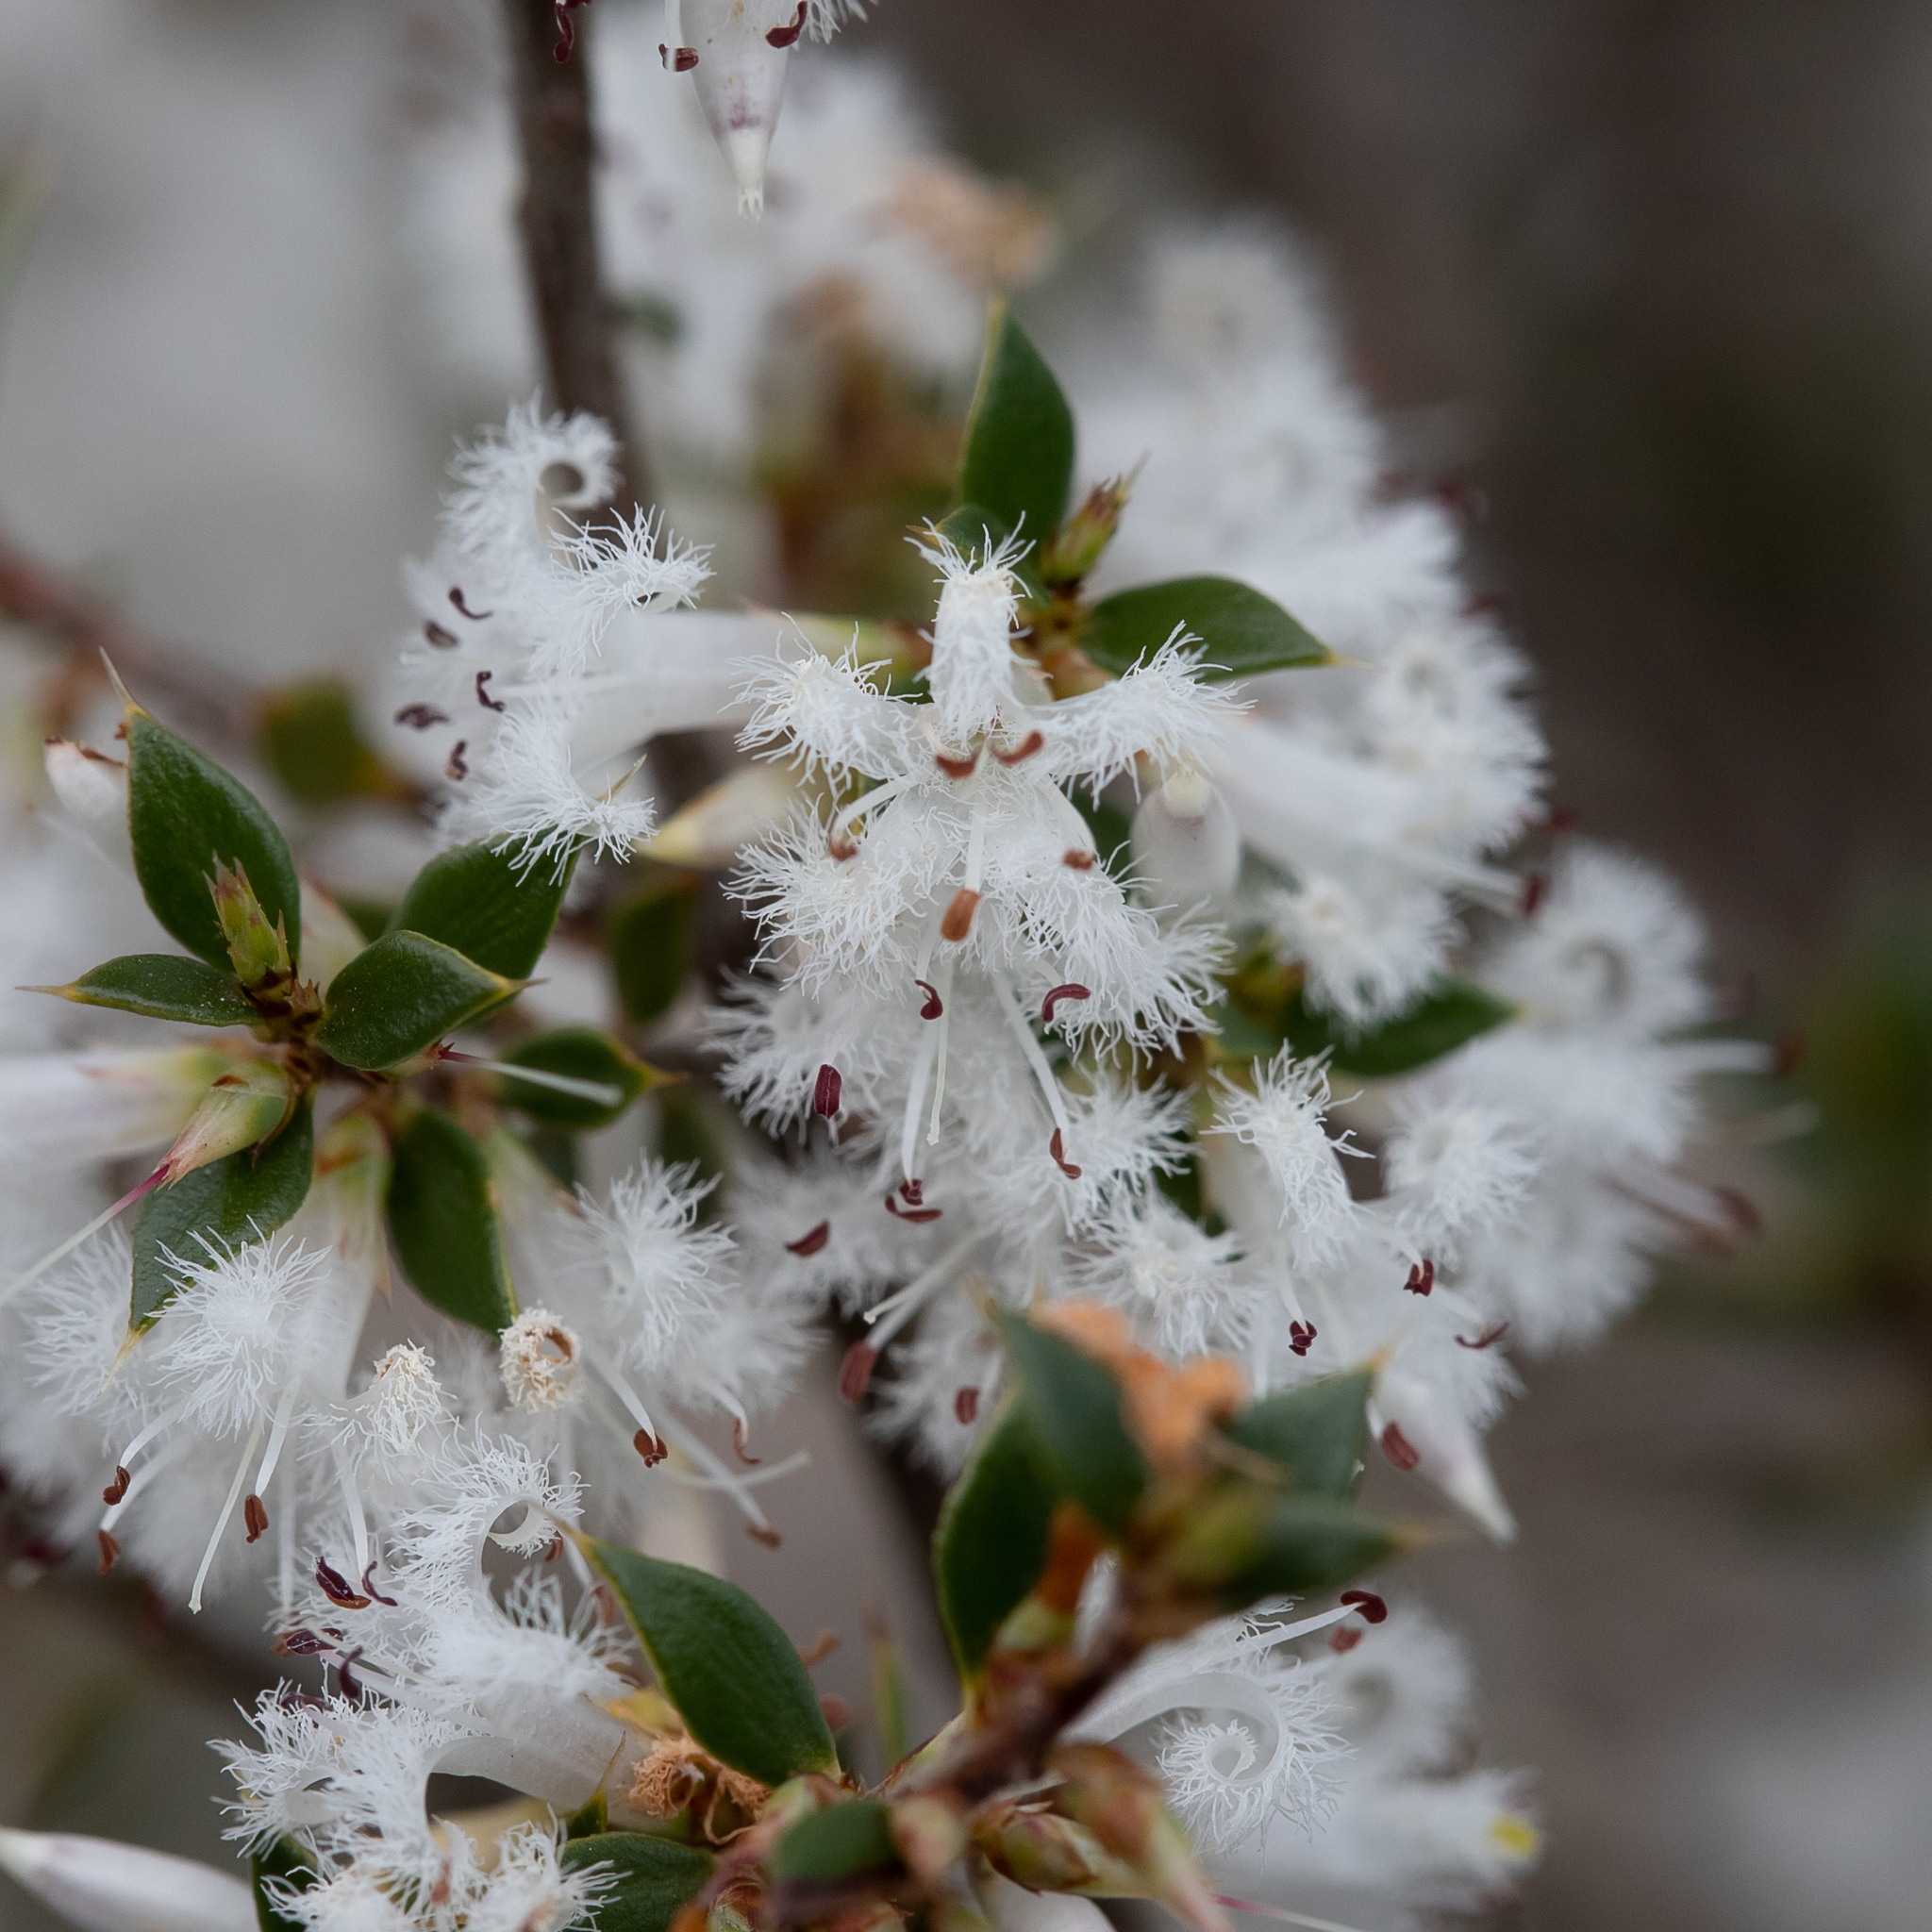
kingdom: Plantae
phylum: Tracheophyta
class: Magnoliopsida
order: Ericales
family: Ericaceae
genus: Styphelia
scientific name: Styphelia exarrhena
